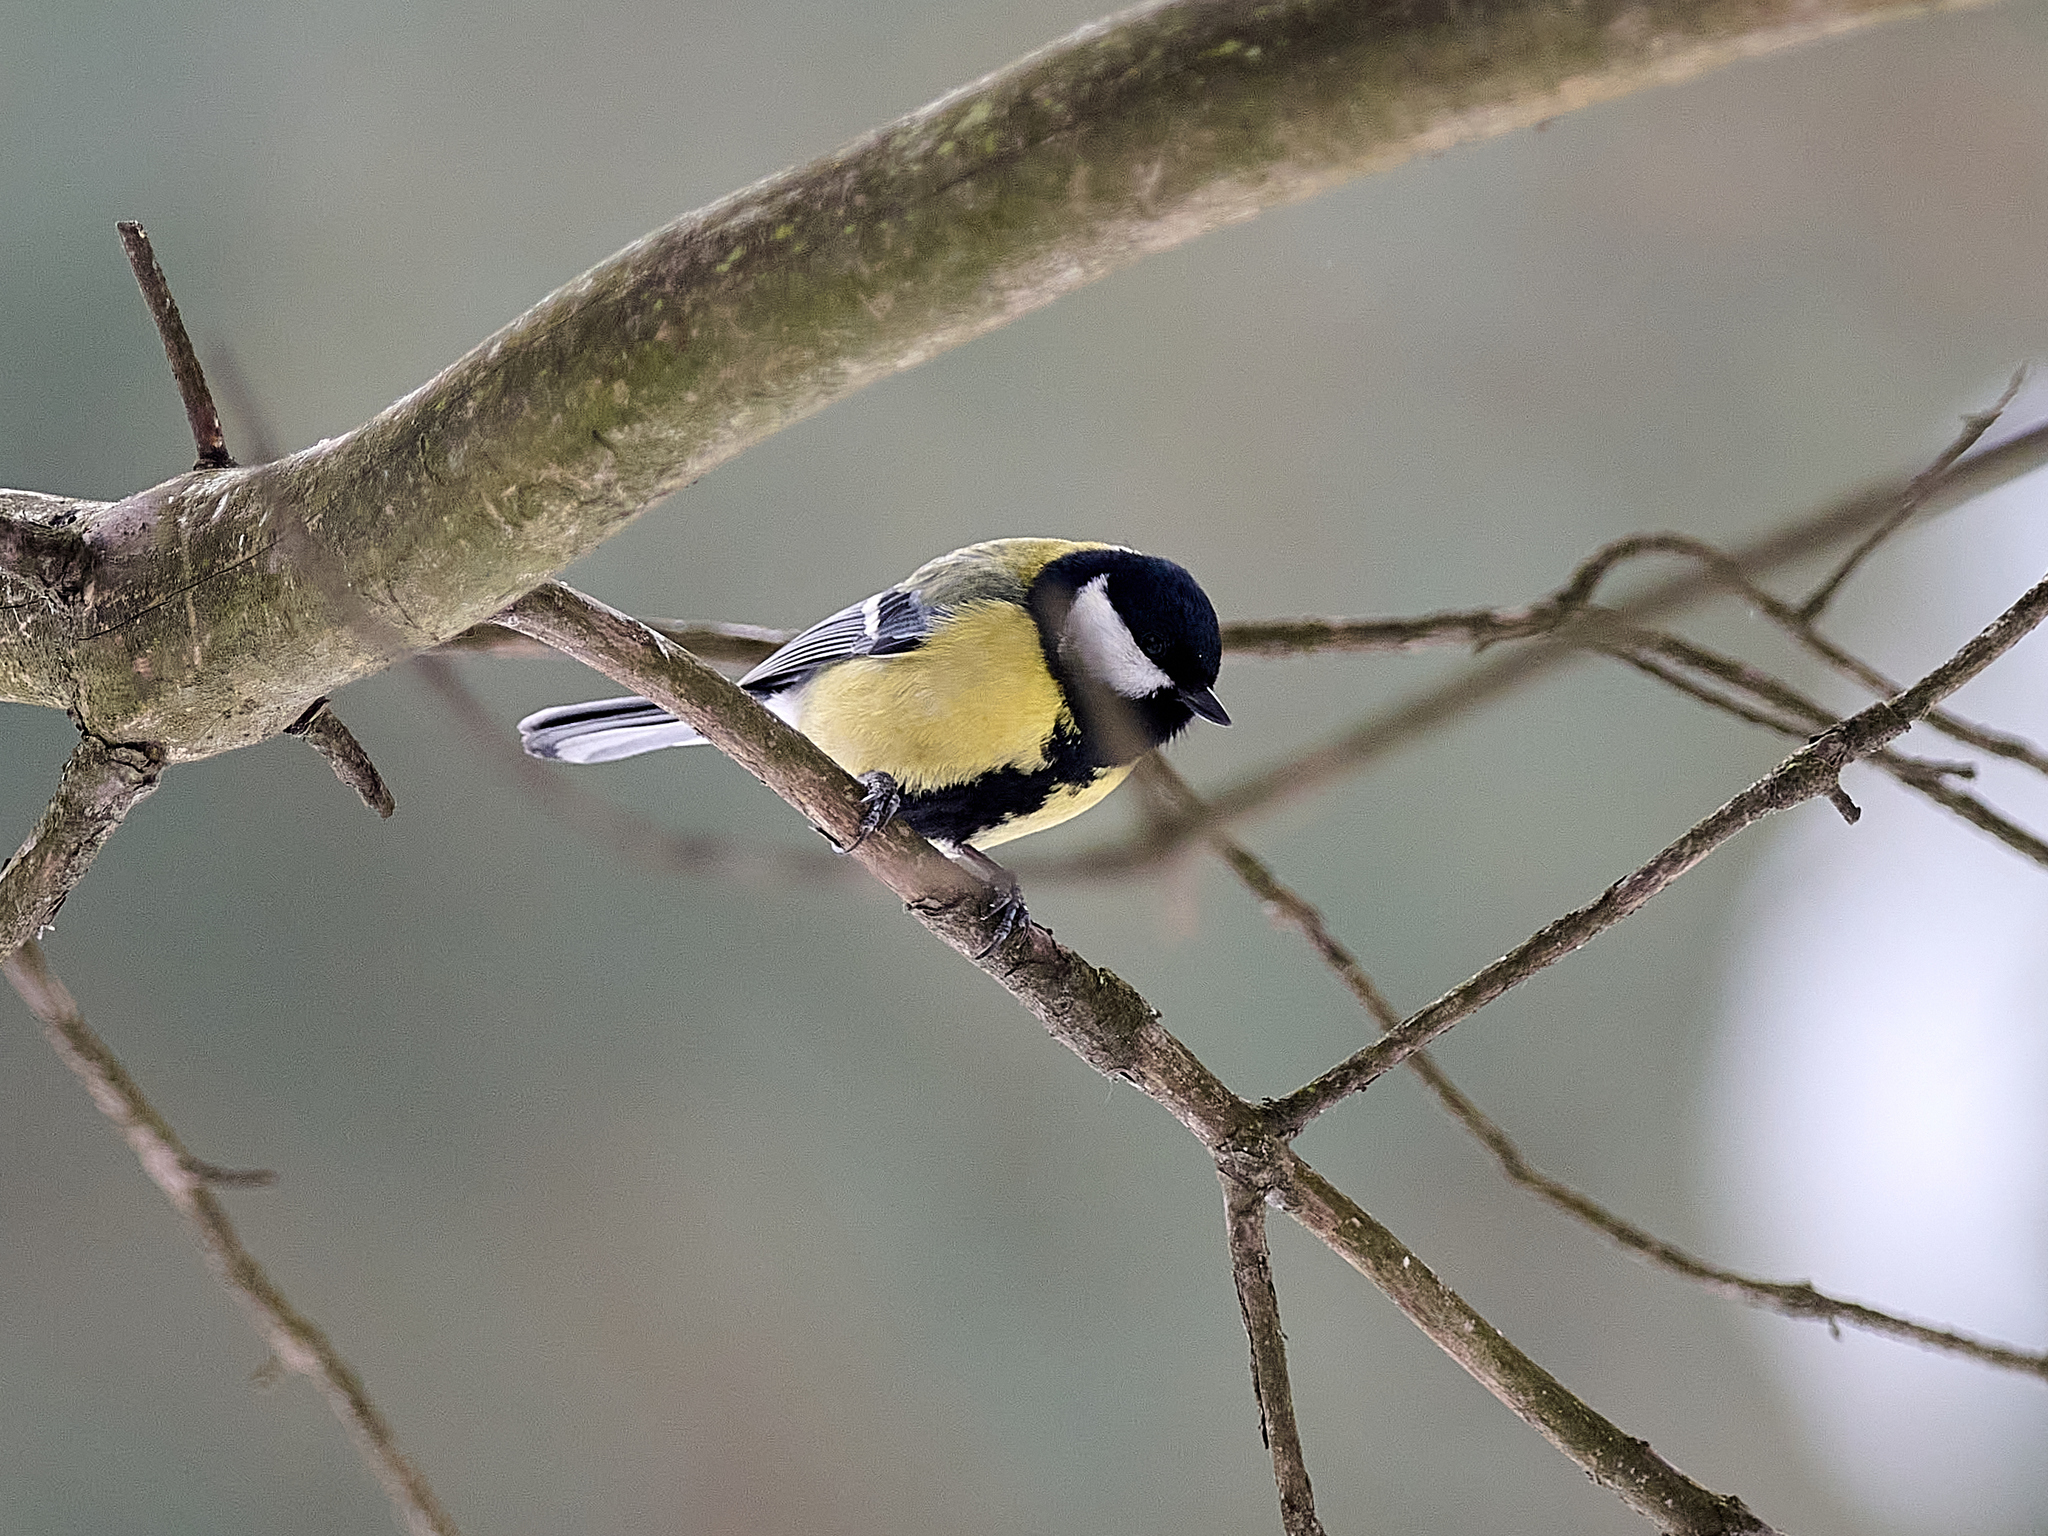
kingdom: Animalia
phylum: Chordata
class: Aves
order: Passeriformes
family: Paridae
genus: Parus
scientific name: Parus major
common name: Great tit
